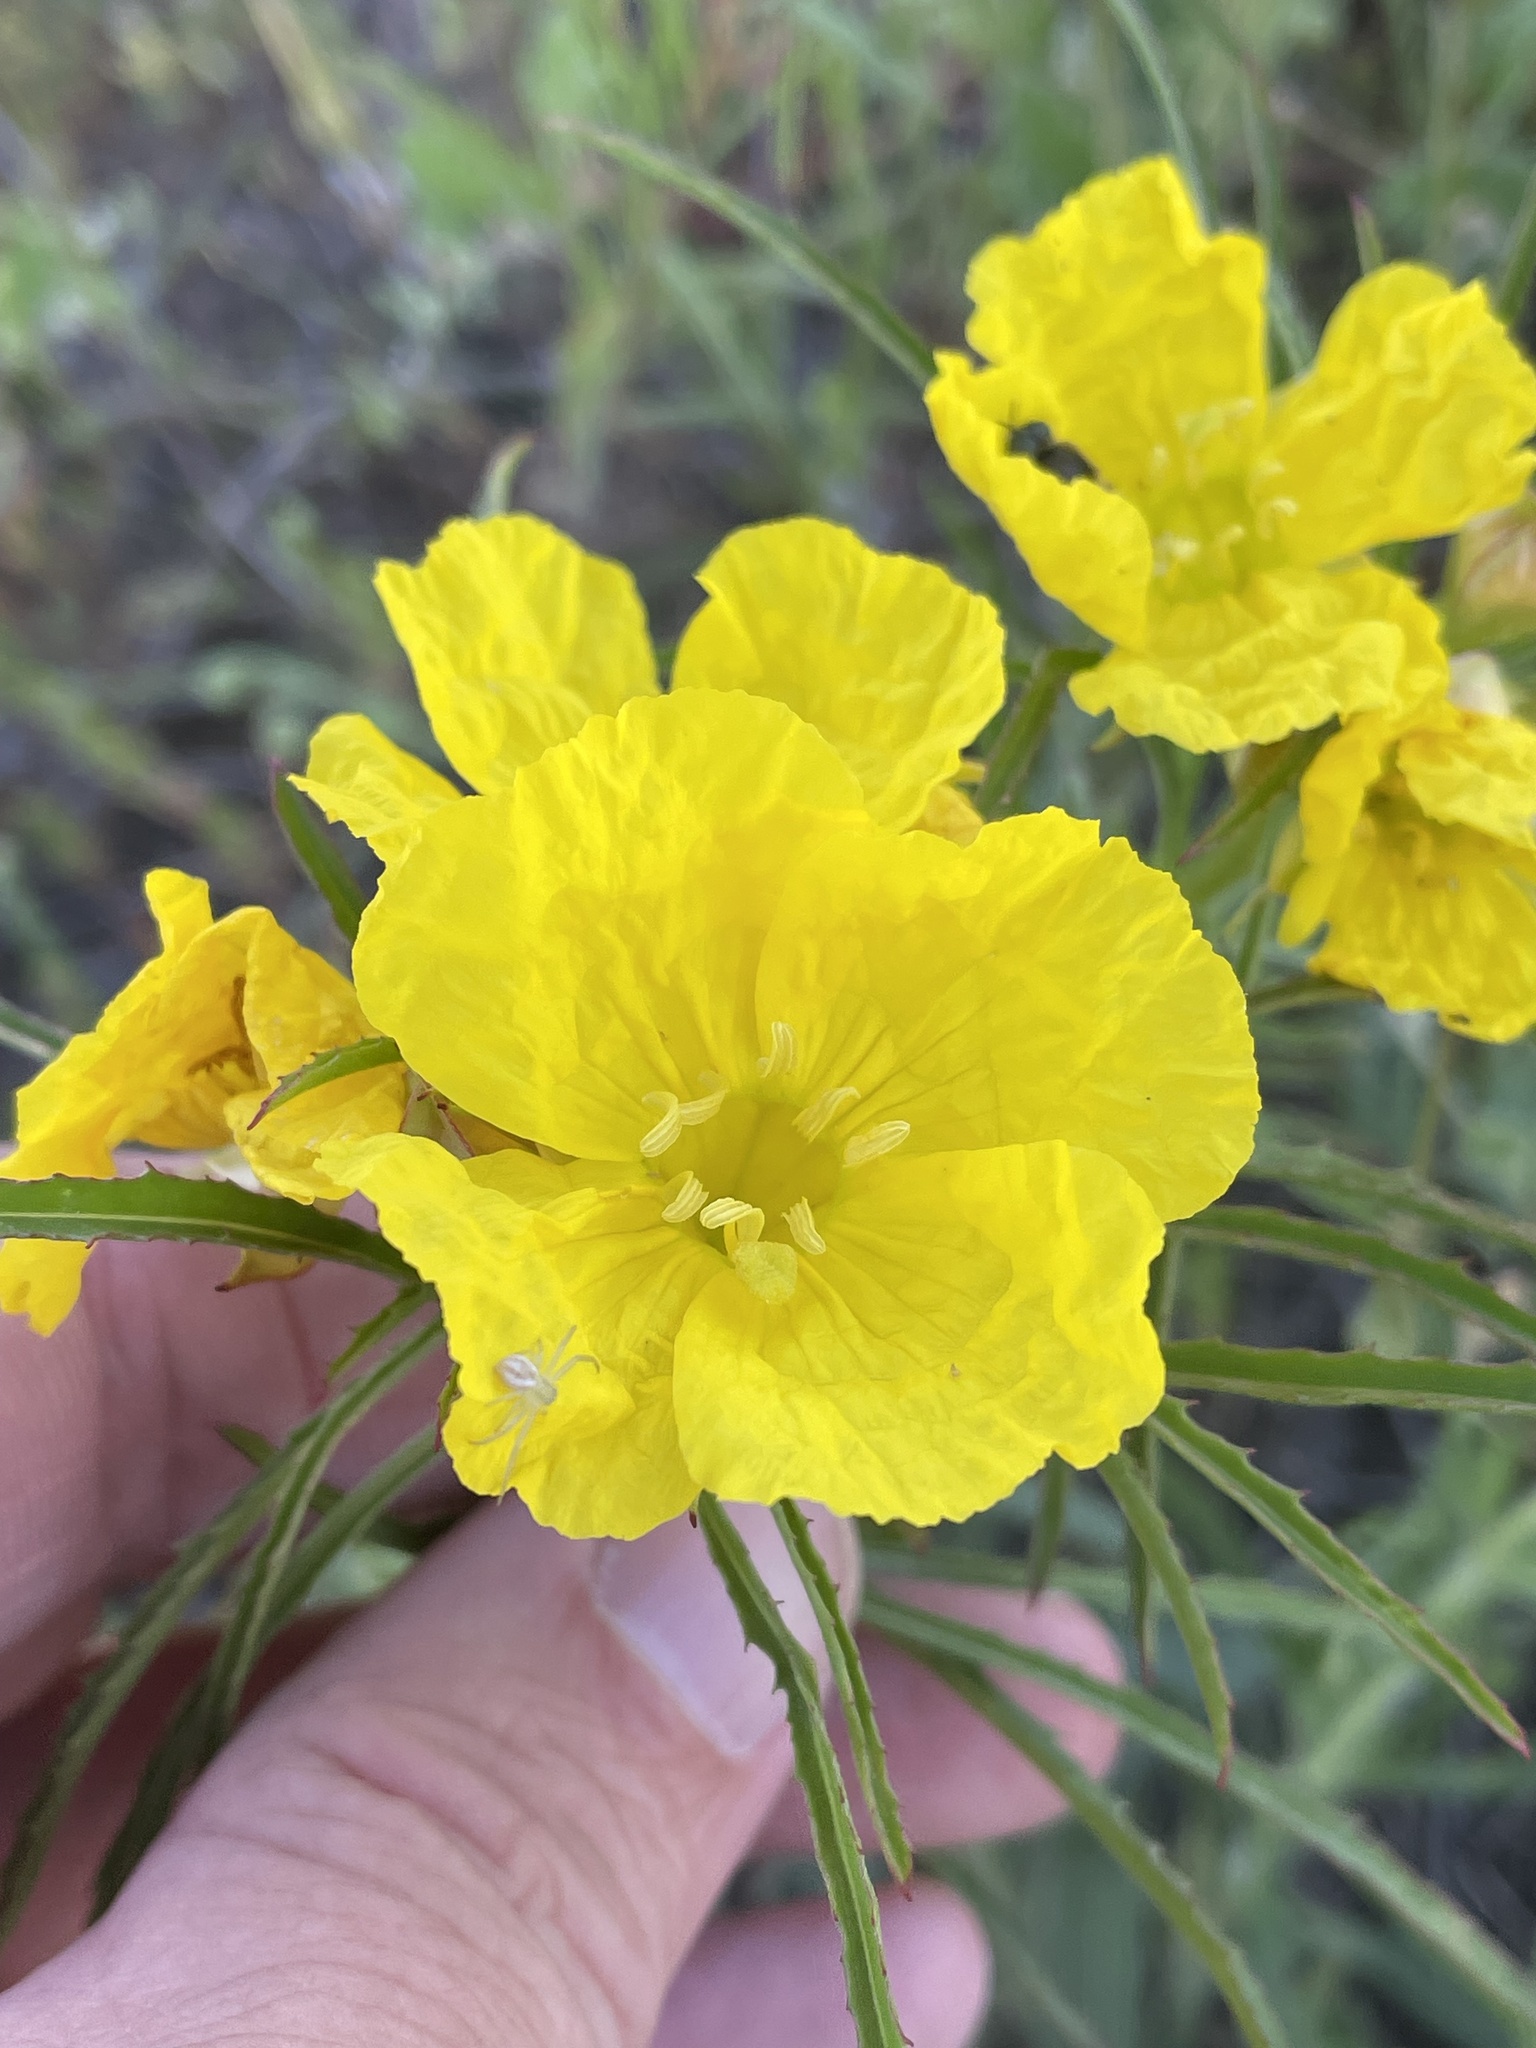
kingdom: Plantae
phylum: Tracheophyta
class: Magnoliopsida
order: Myrtales
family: Onagraceae
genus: Oenothera
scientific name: Oenothera
